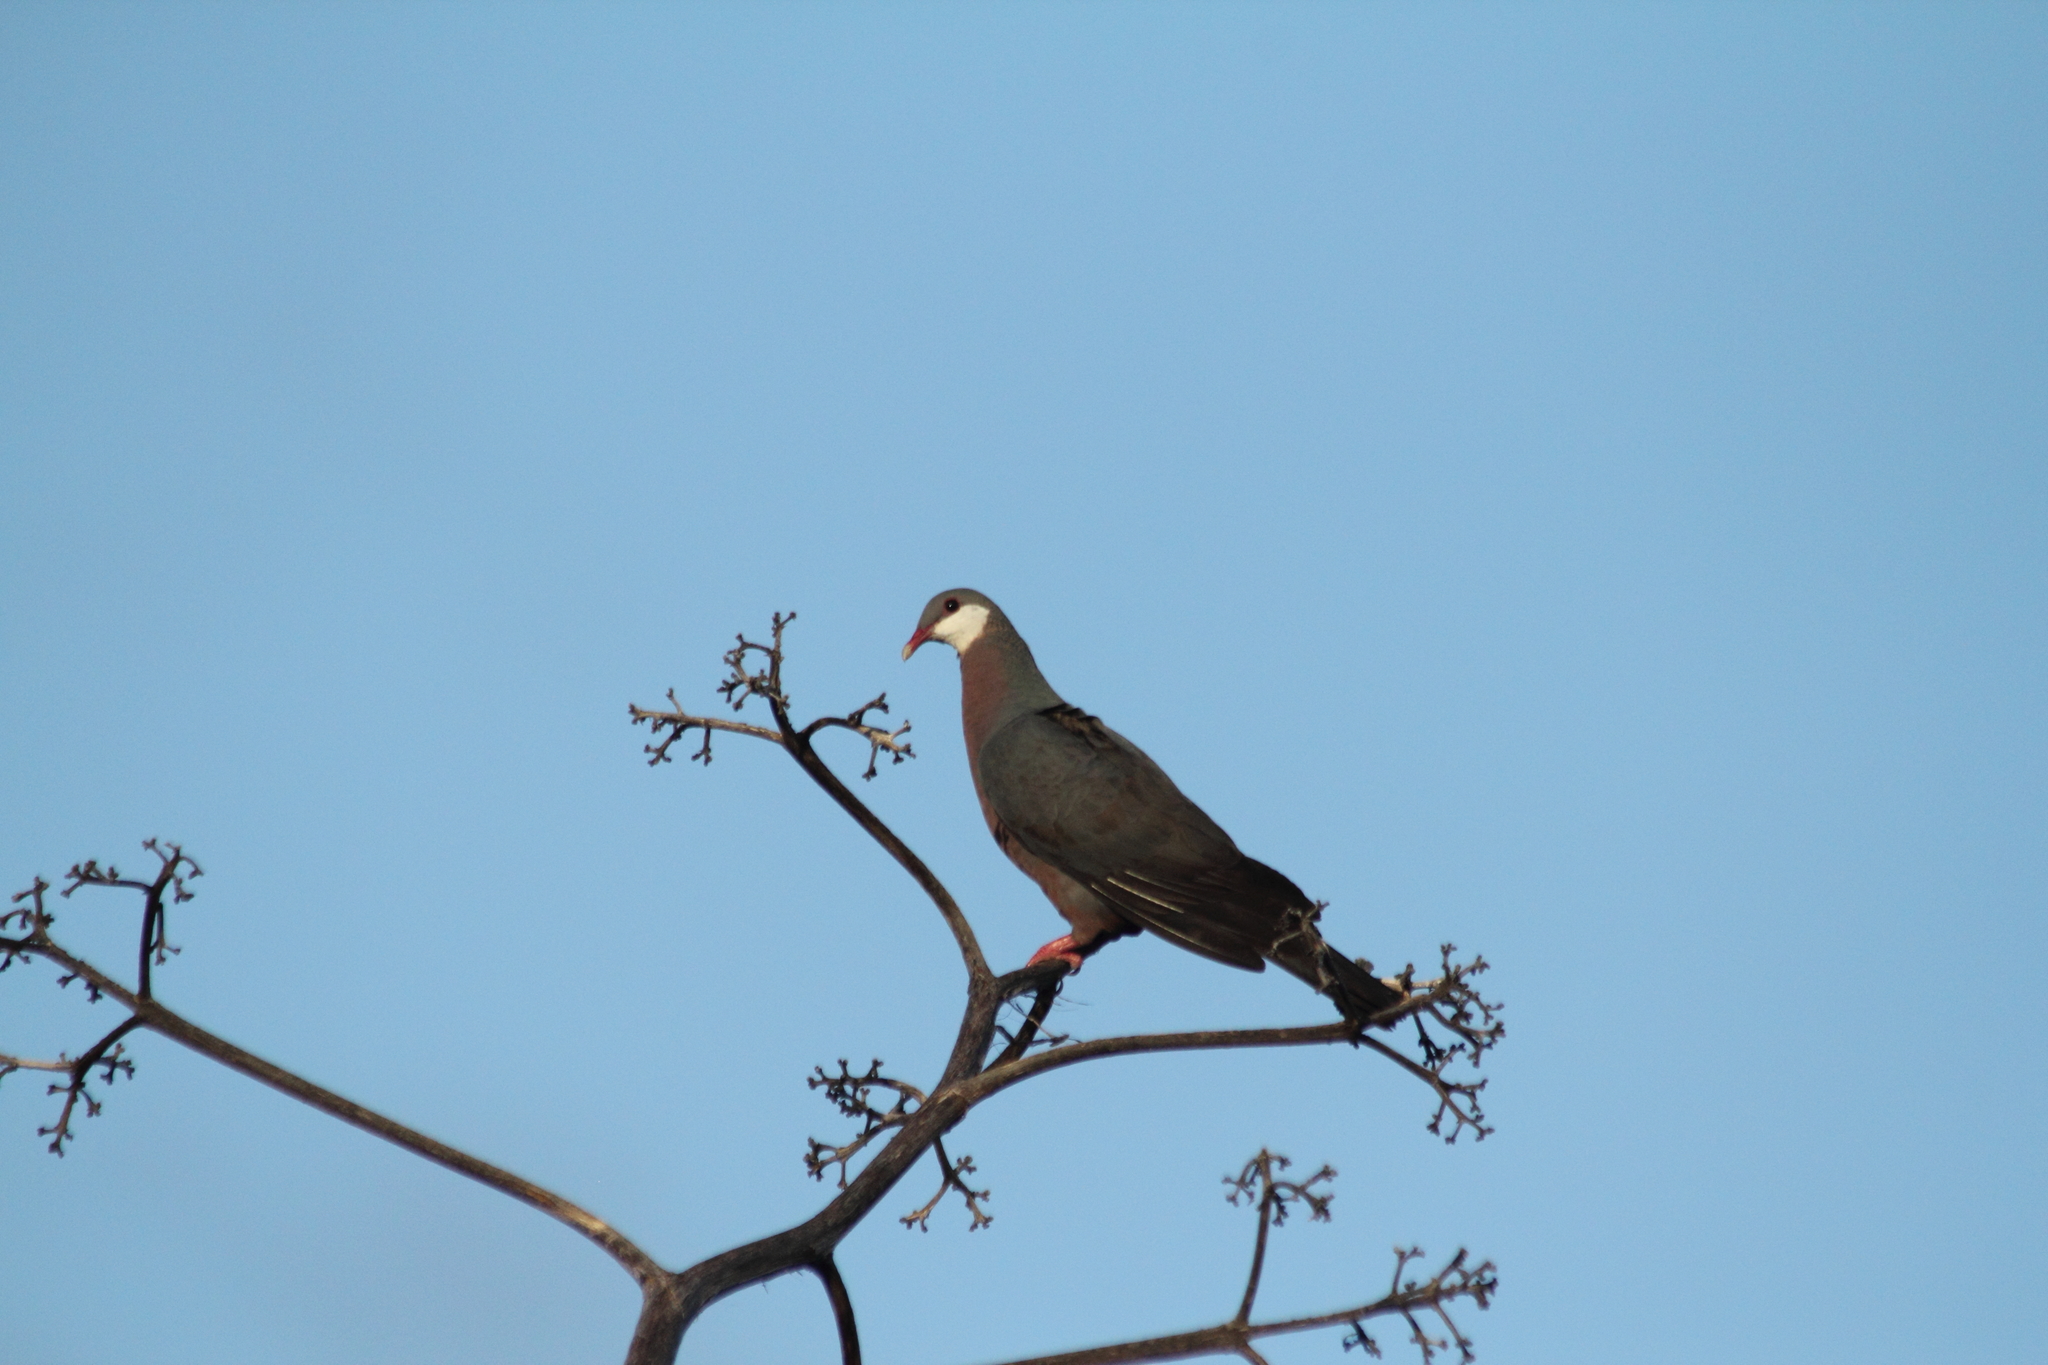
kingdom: Animalia
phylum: Chordata
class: Aves
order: Columbiformes
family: Columbidae
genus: Columba
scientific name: Columba vitiensis
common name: Metallic pigeon
